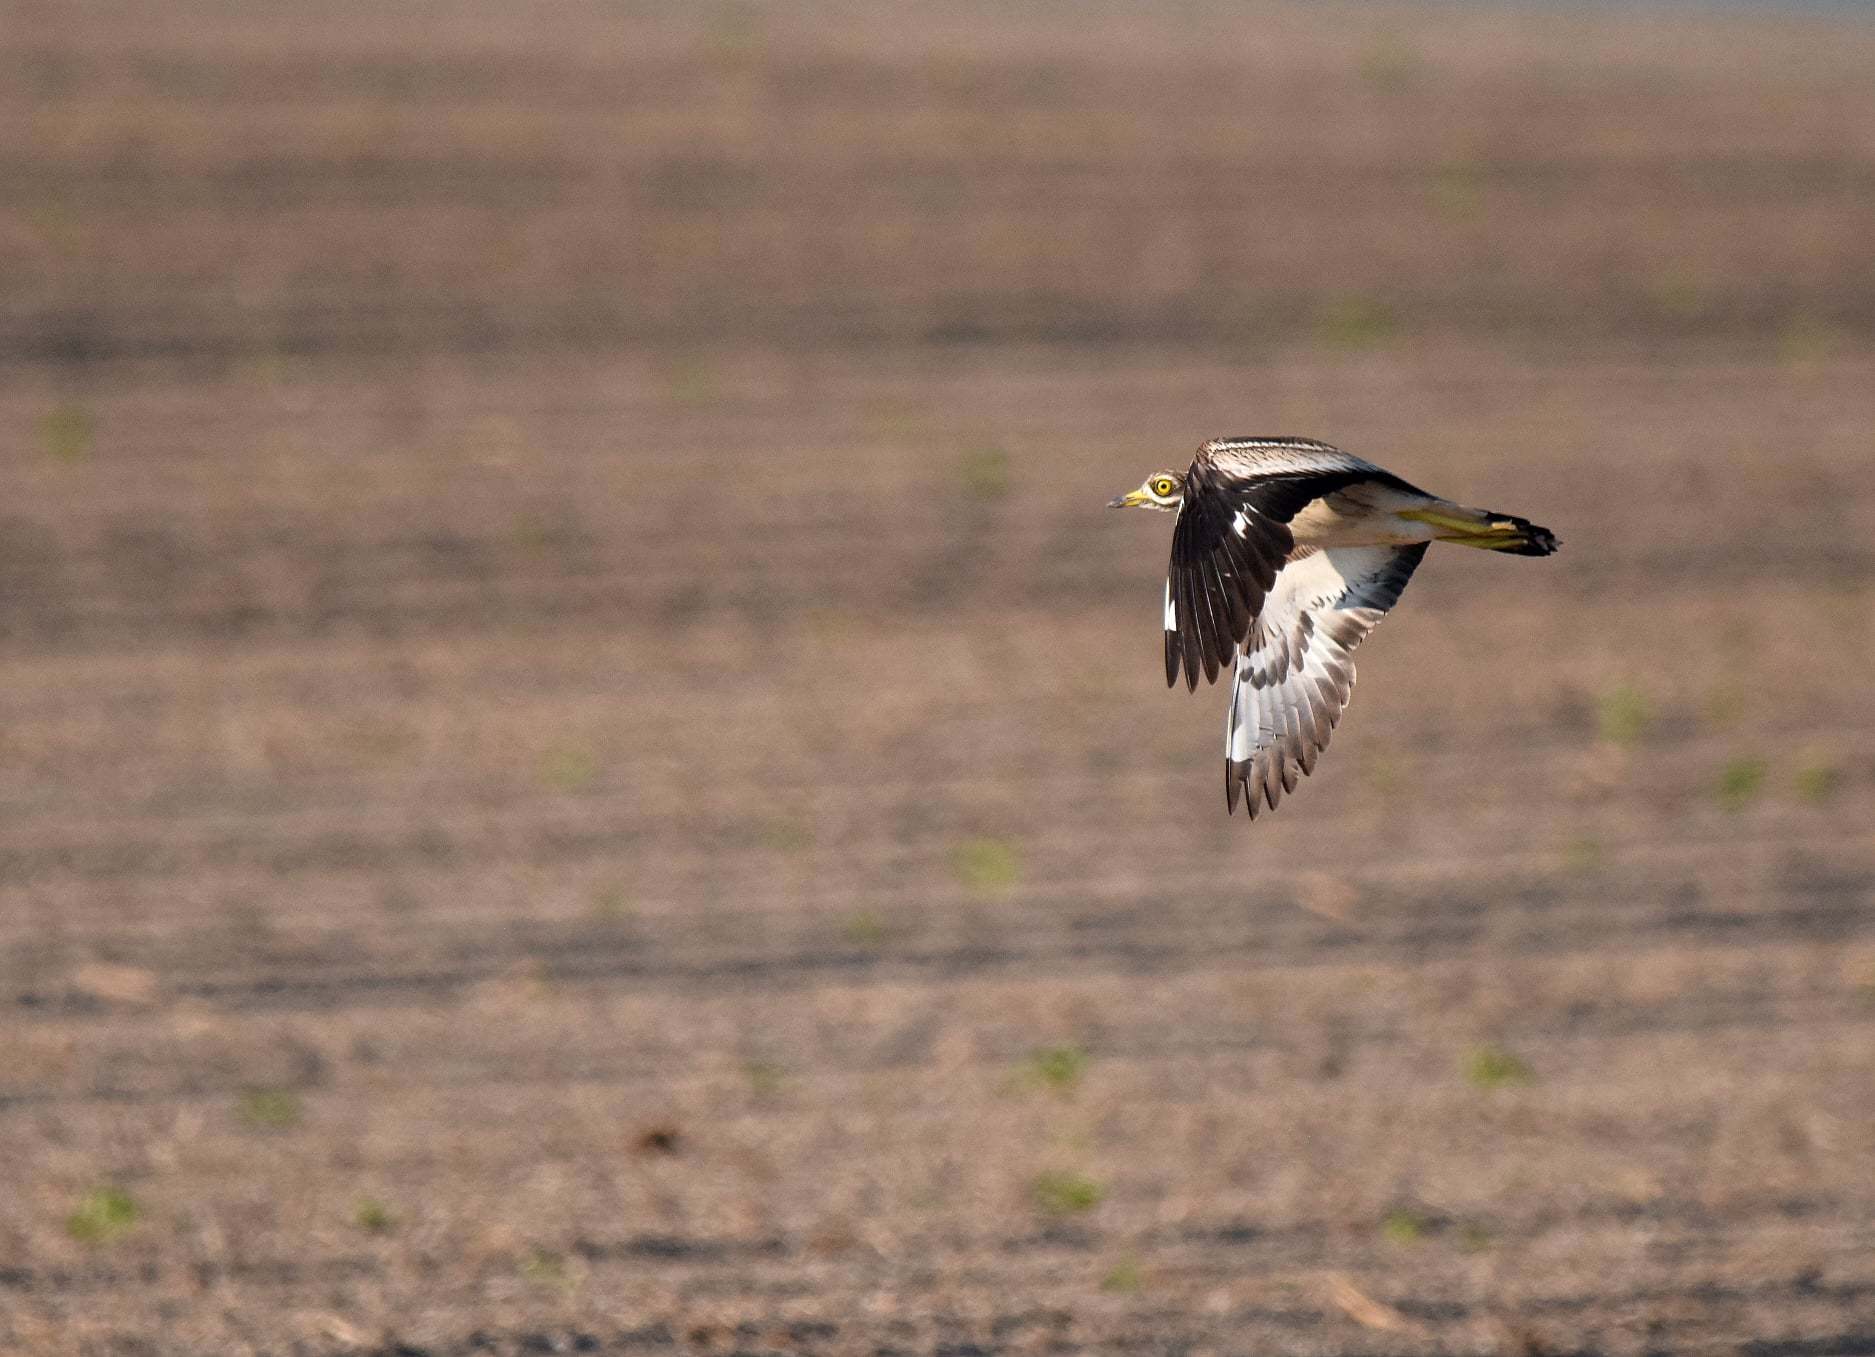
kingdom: Animalia
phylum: Chordata
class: Aves
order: Charadriiformes
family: Burhinidae
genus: Burhinus
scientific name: Burhinus oedicnemus
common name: Eurasian stone-curlew
